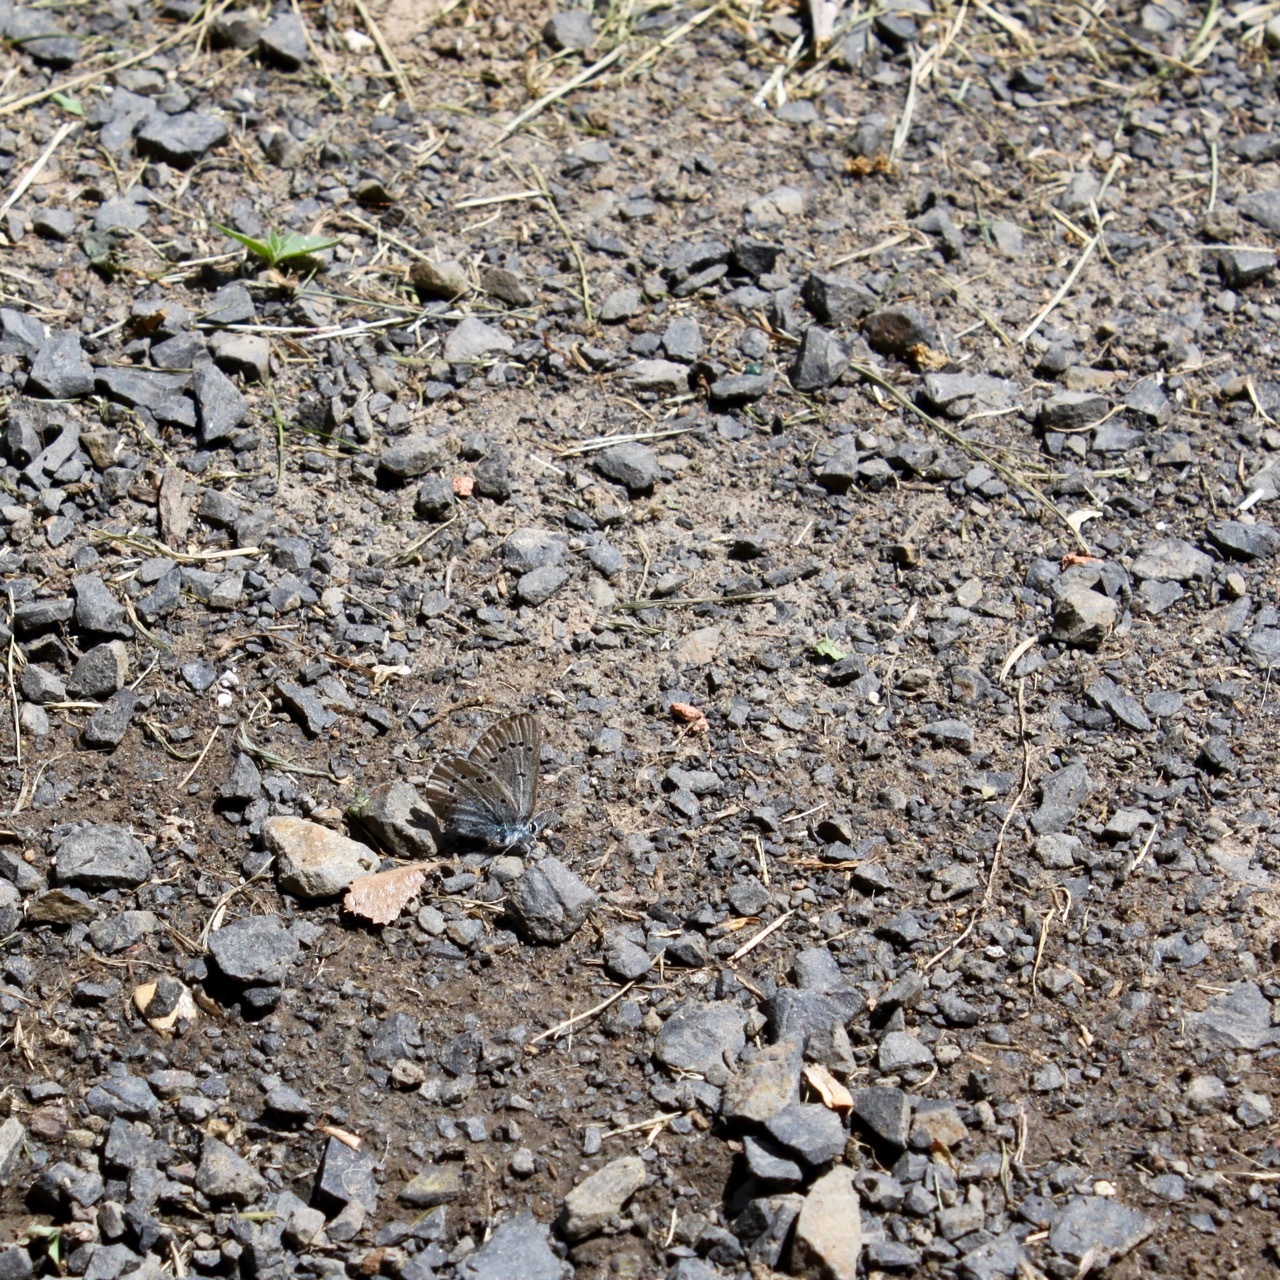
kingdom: Animalia
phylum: Arthropoda
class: Insecta
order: Lepidoptera
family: Lycaenidae
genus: Glaucopsyche
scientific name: Glaucopsyche lygdamus
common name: Silvery blue
